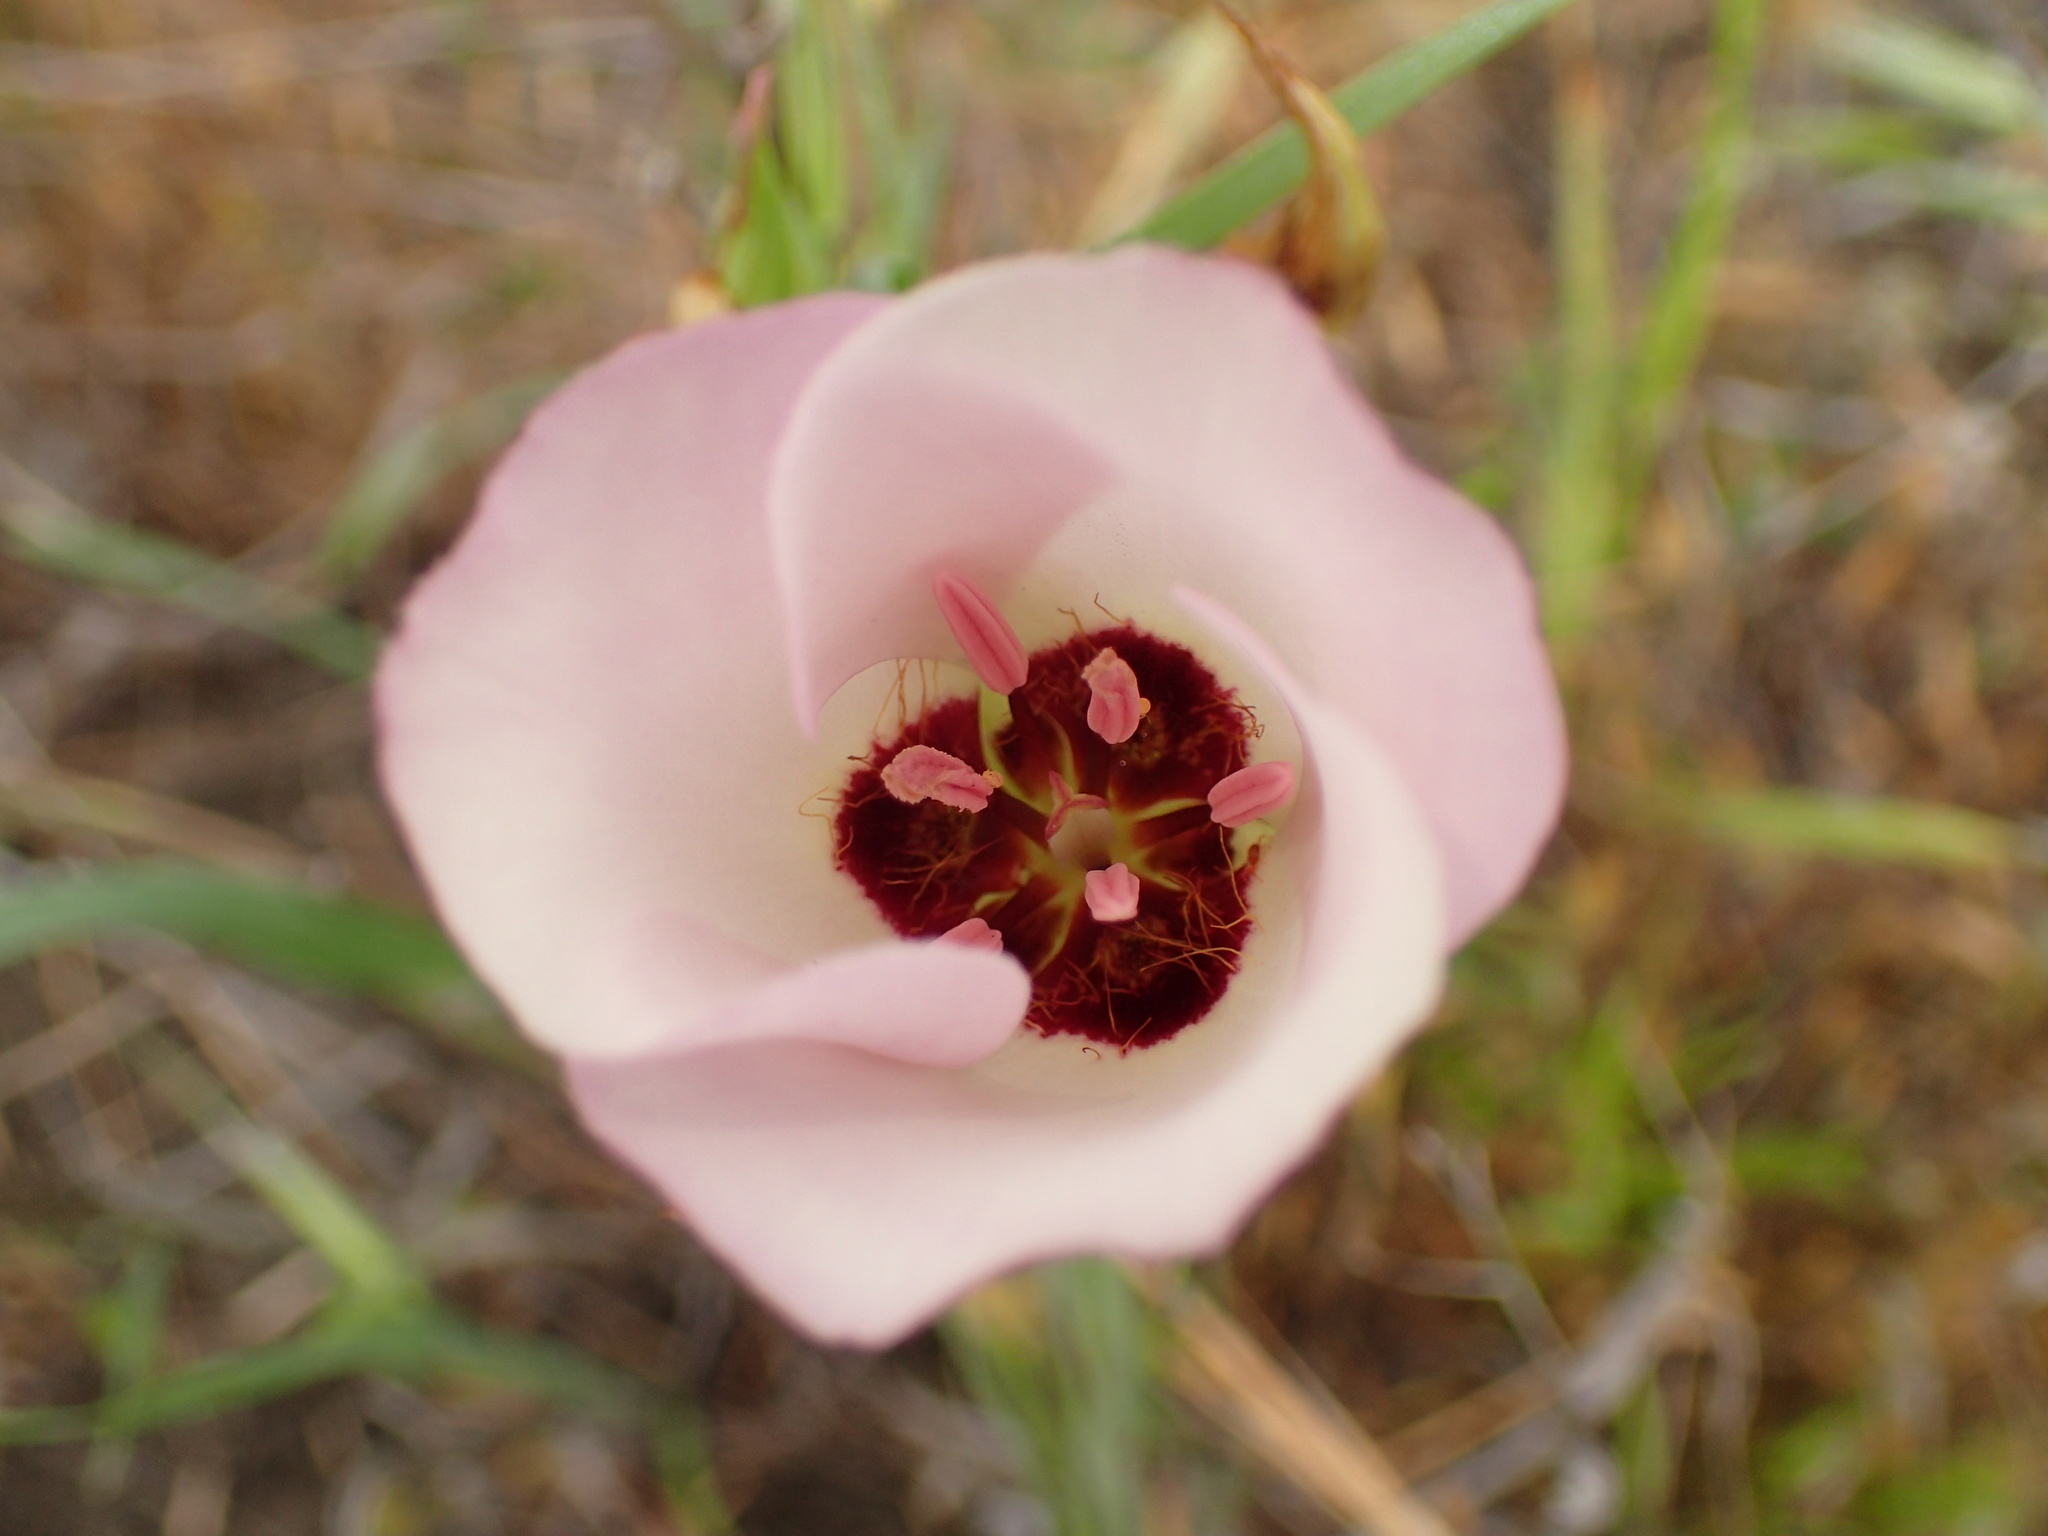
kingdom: Plantae
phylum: Tracheophyta
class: Liliopsida
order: Liliales
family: Liliaceae
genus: Calochortus
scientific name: Calochortus catalinae
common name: Catalina mariposa-lily
